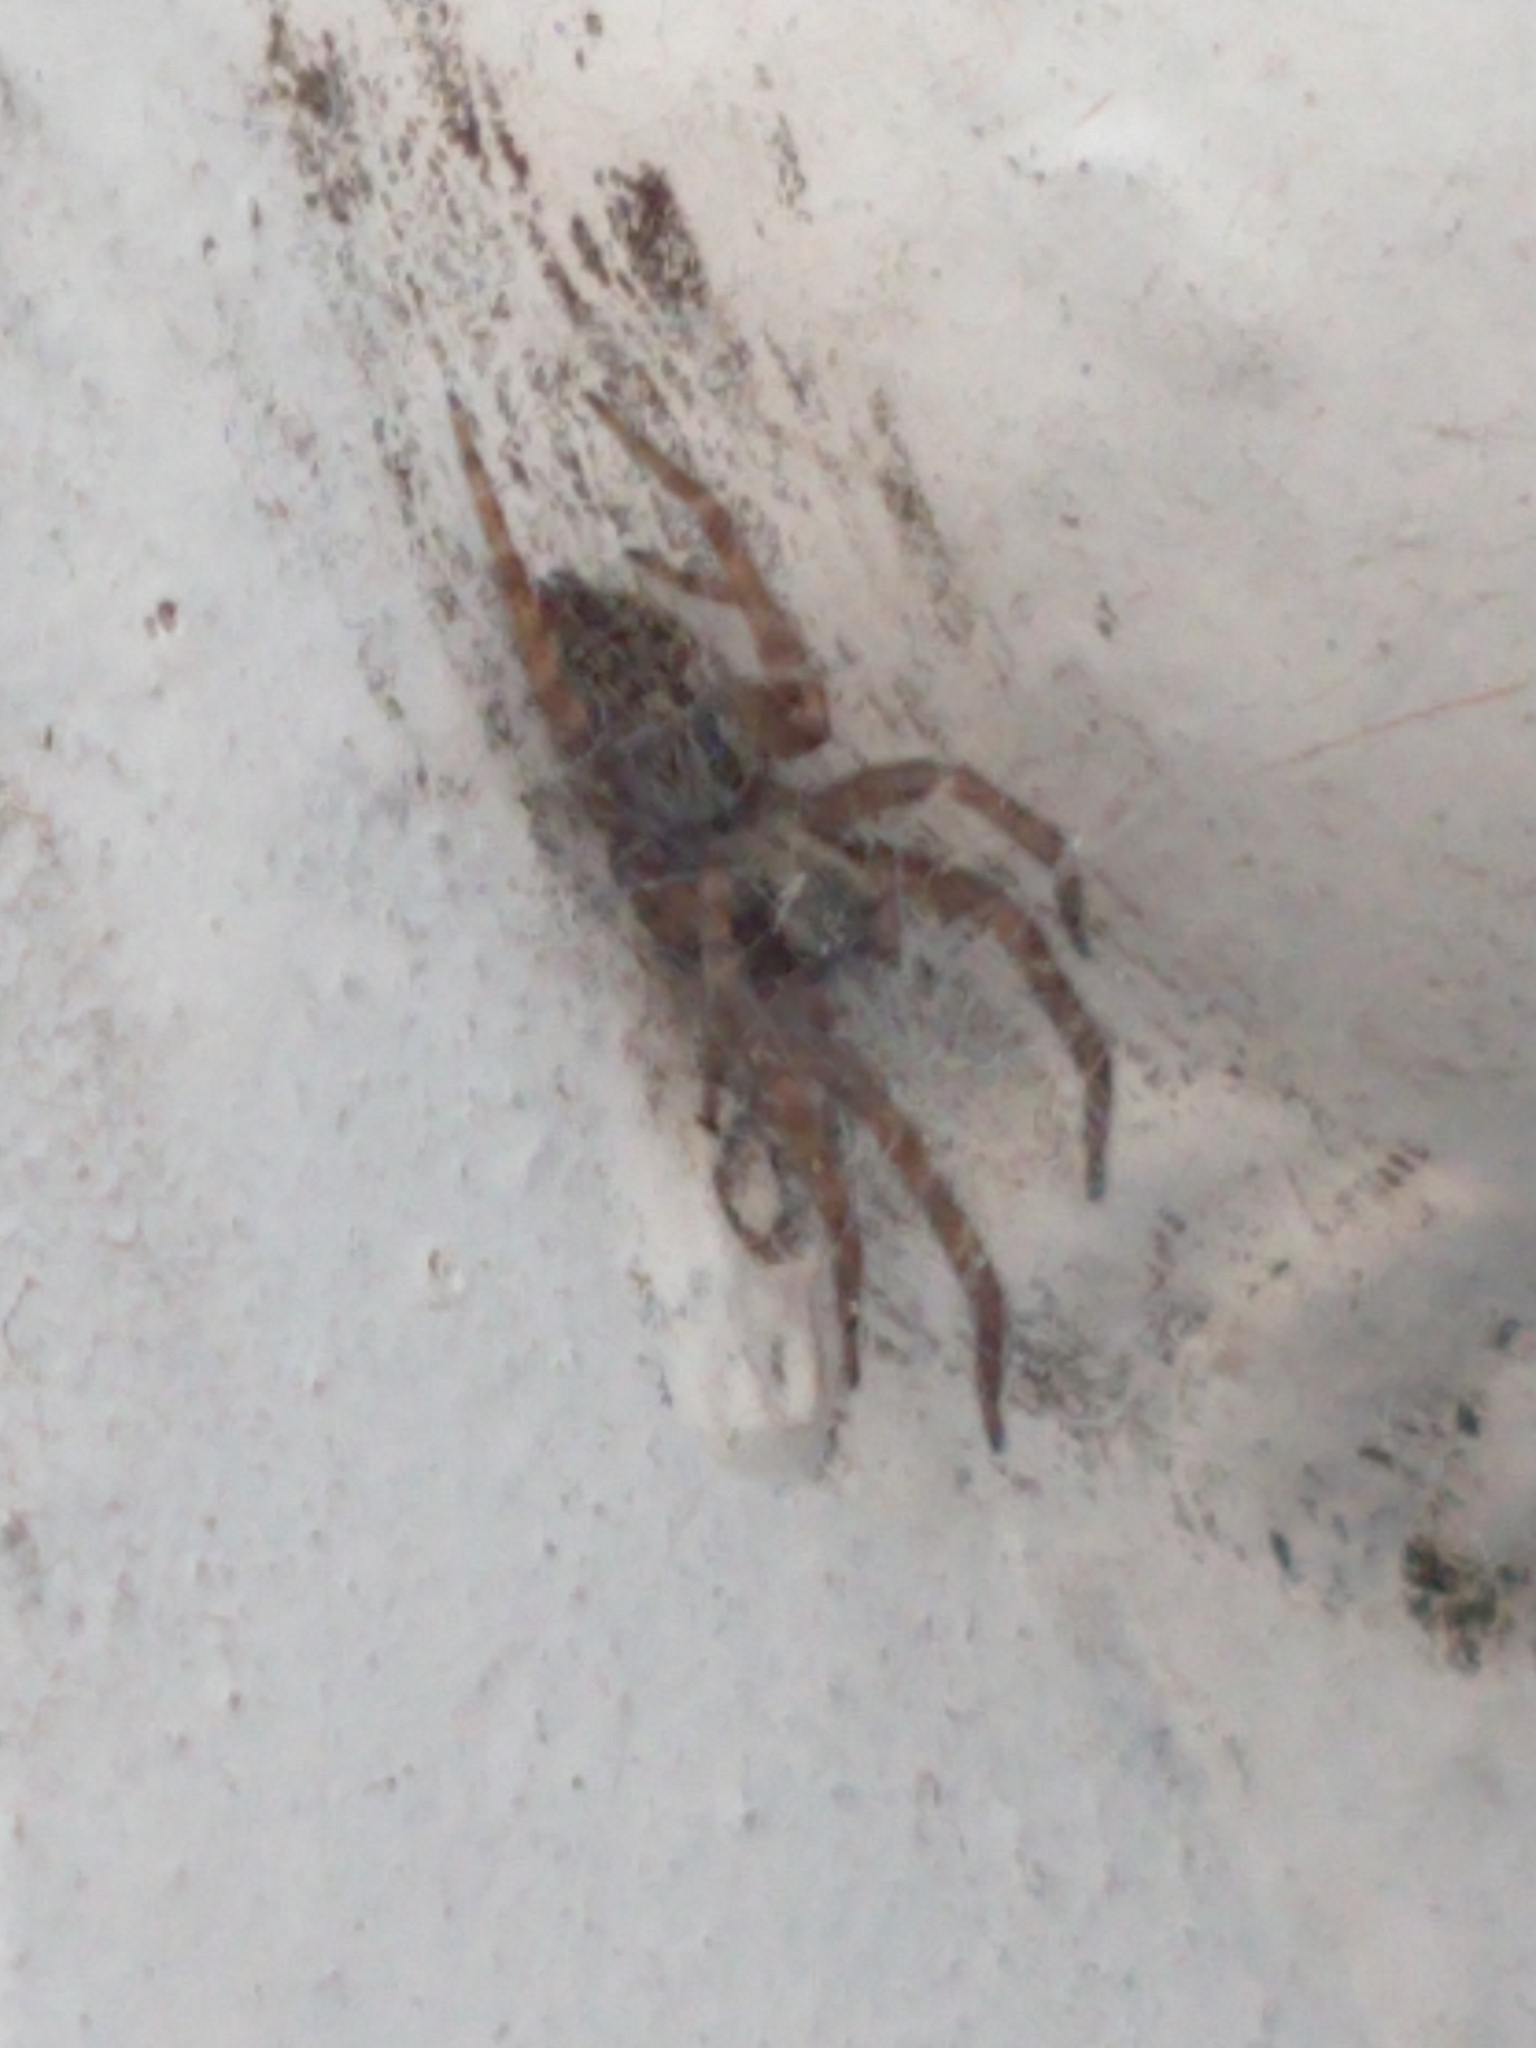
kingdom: Animalia
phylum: Arthropoda
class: Arachnida
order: Araneae
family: Desidae
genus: Badumna
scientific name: Badumna longinqua
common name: Gray house spider
